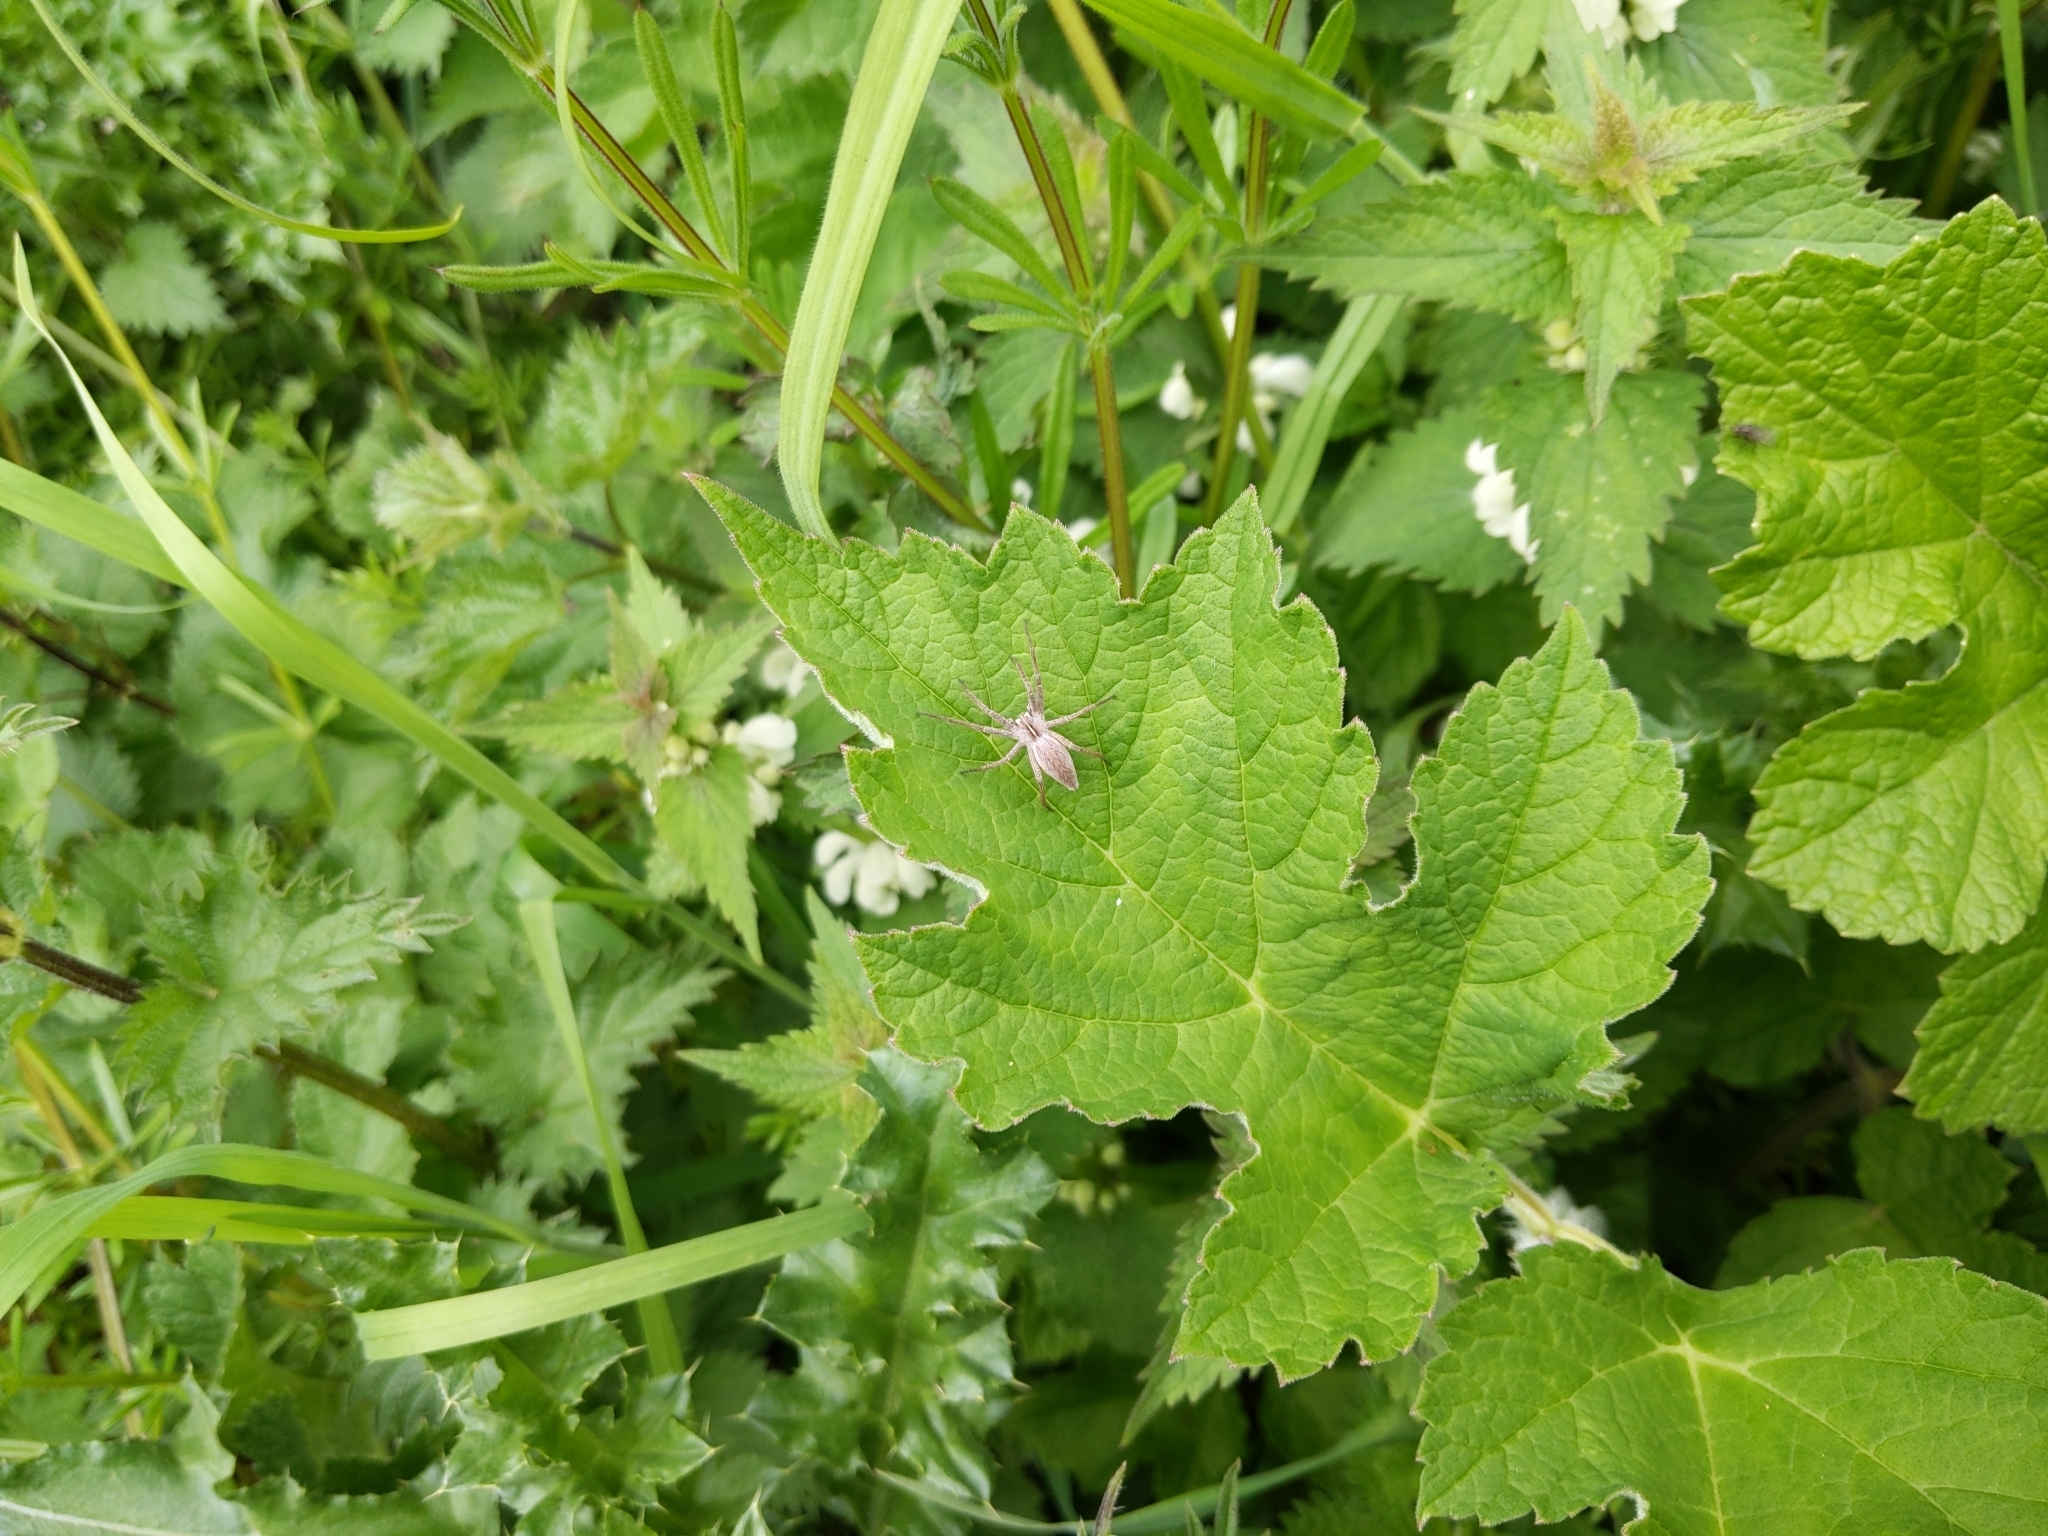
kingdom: Animalia
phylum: Arthropoda
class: Arachnida
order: Araneae
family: Pisauridae
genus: Pisaura
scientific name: Pisaura mirabilis
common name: Tent spider
